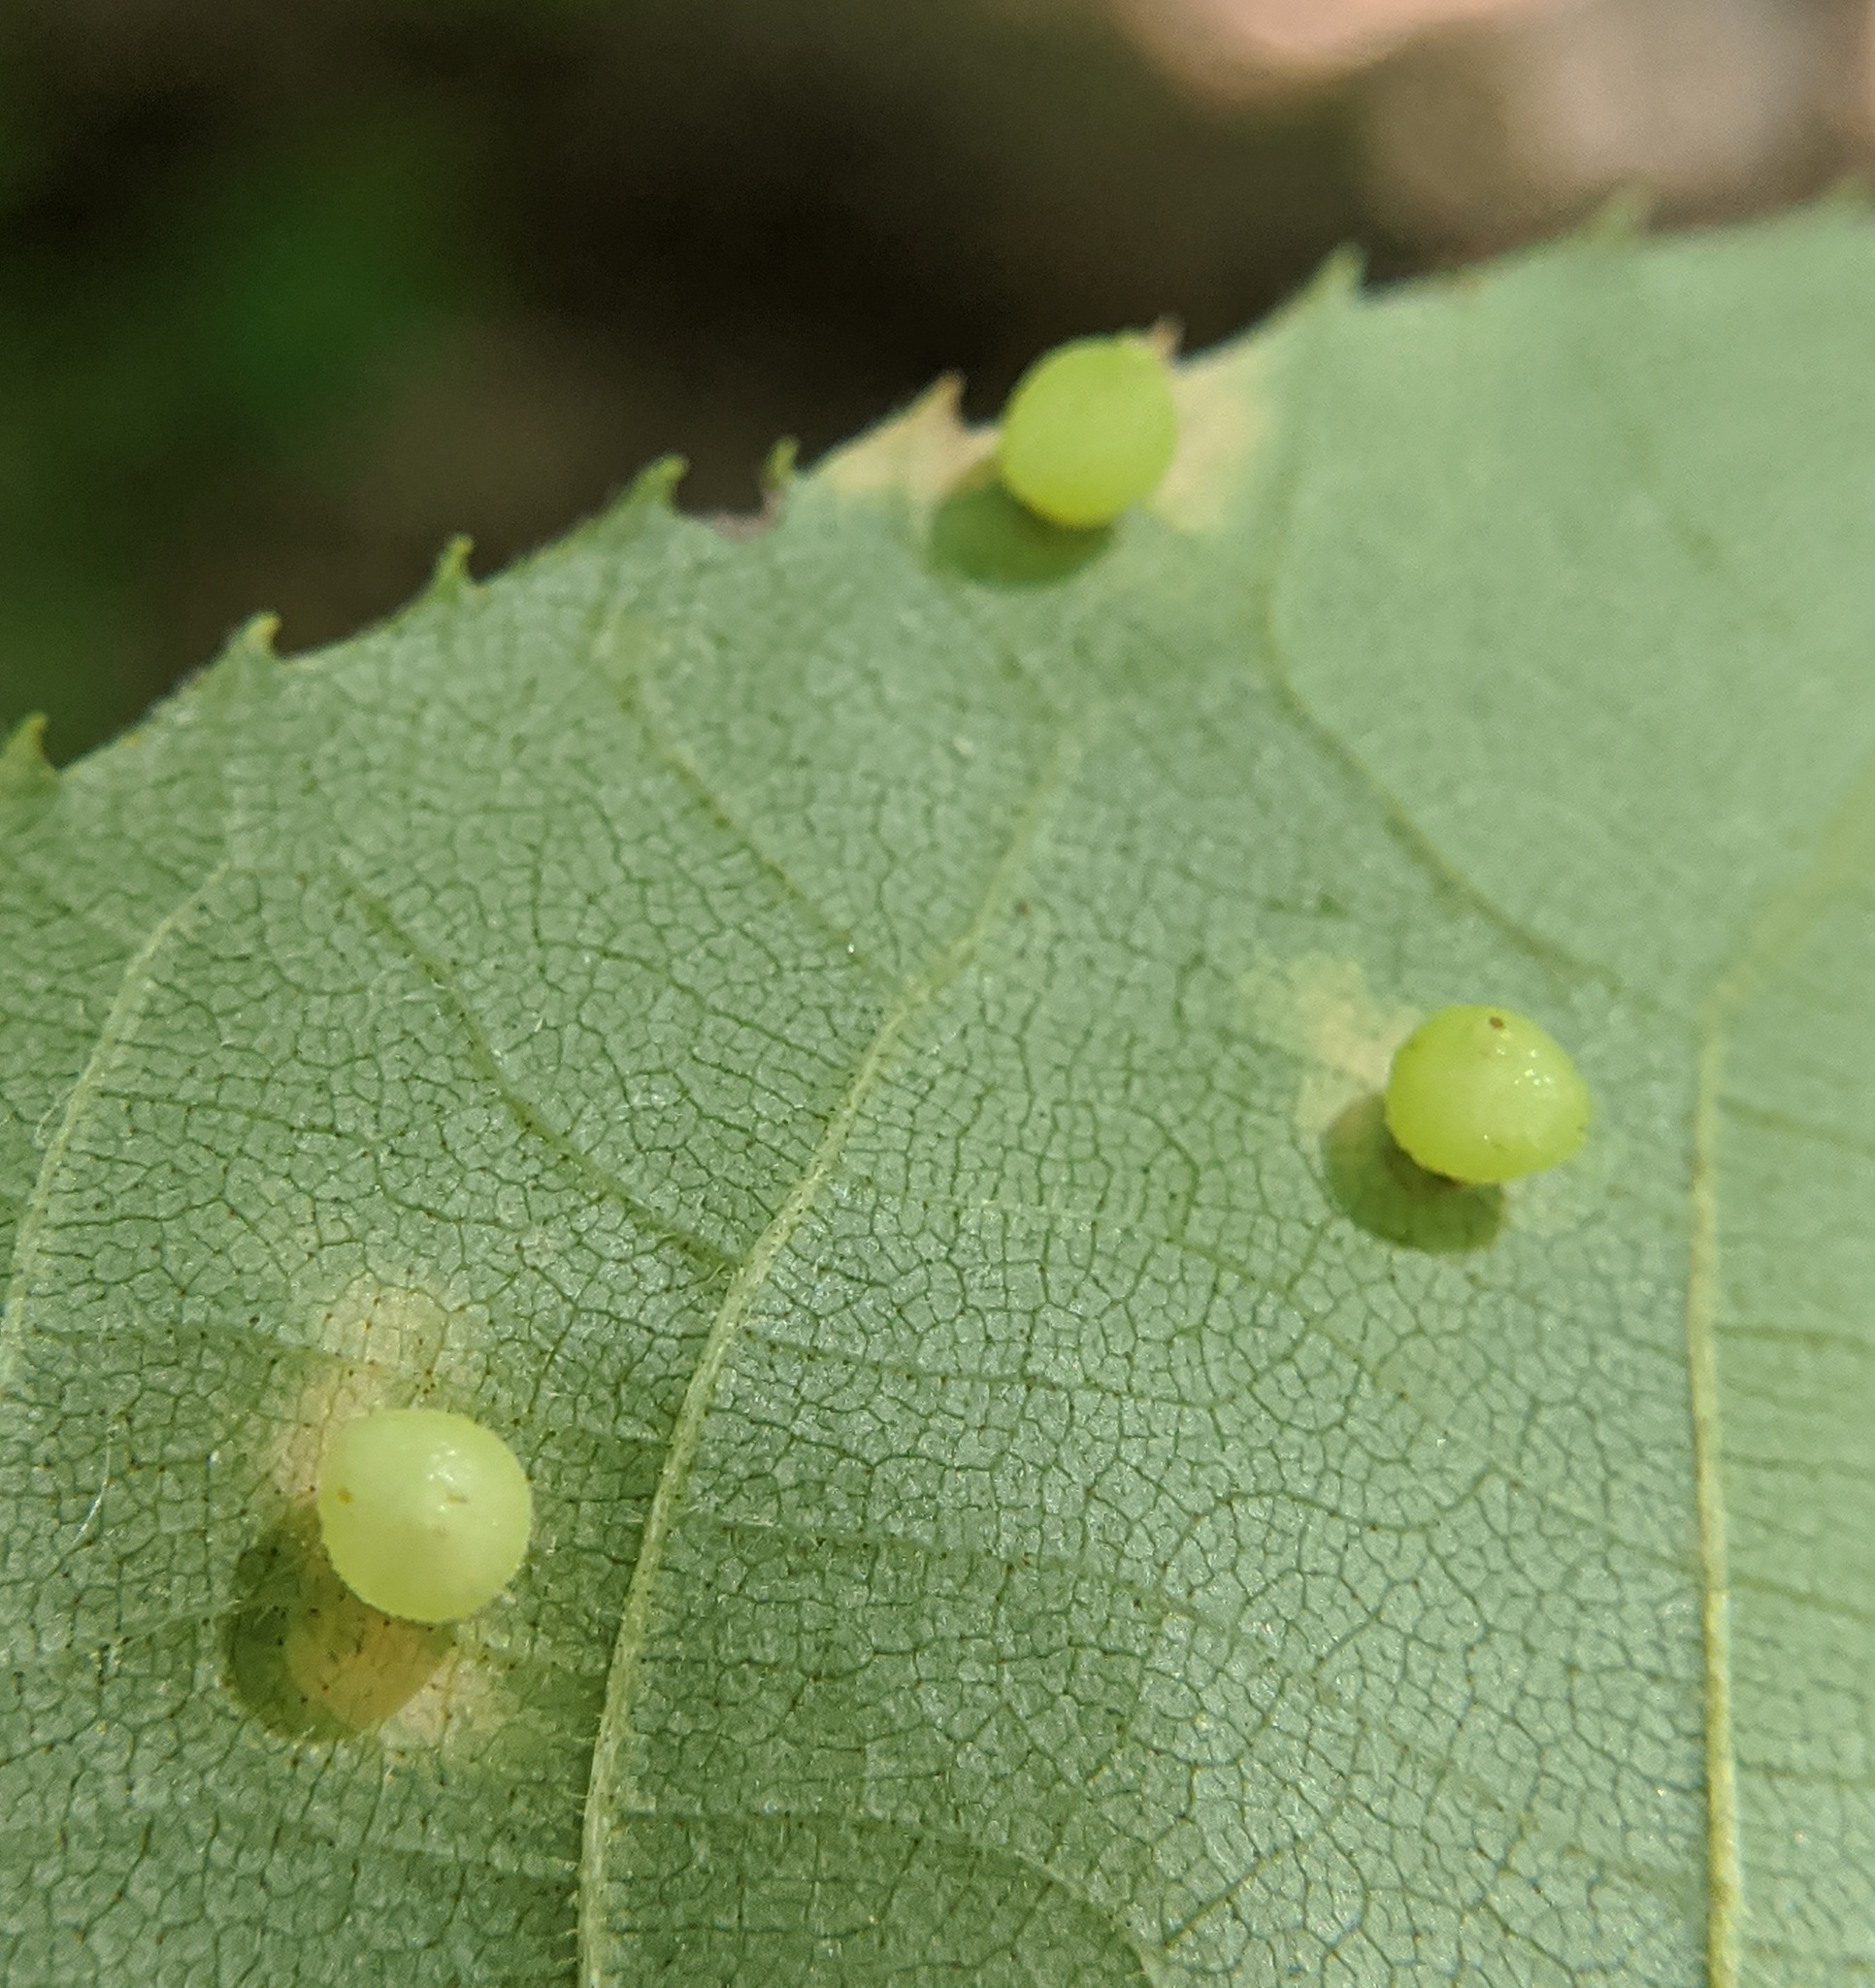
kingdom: Animalia
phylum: Arthropoda
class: Insecta
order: Diptera
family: Cecidomyiidae
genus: Caryomyia
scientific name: Caryomyia caryae
